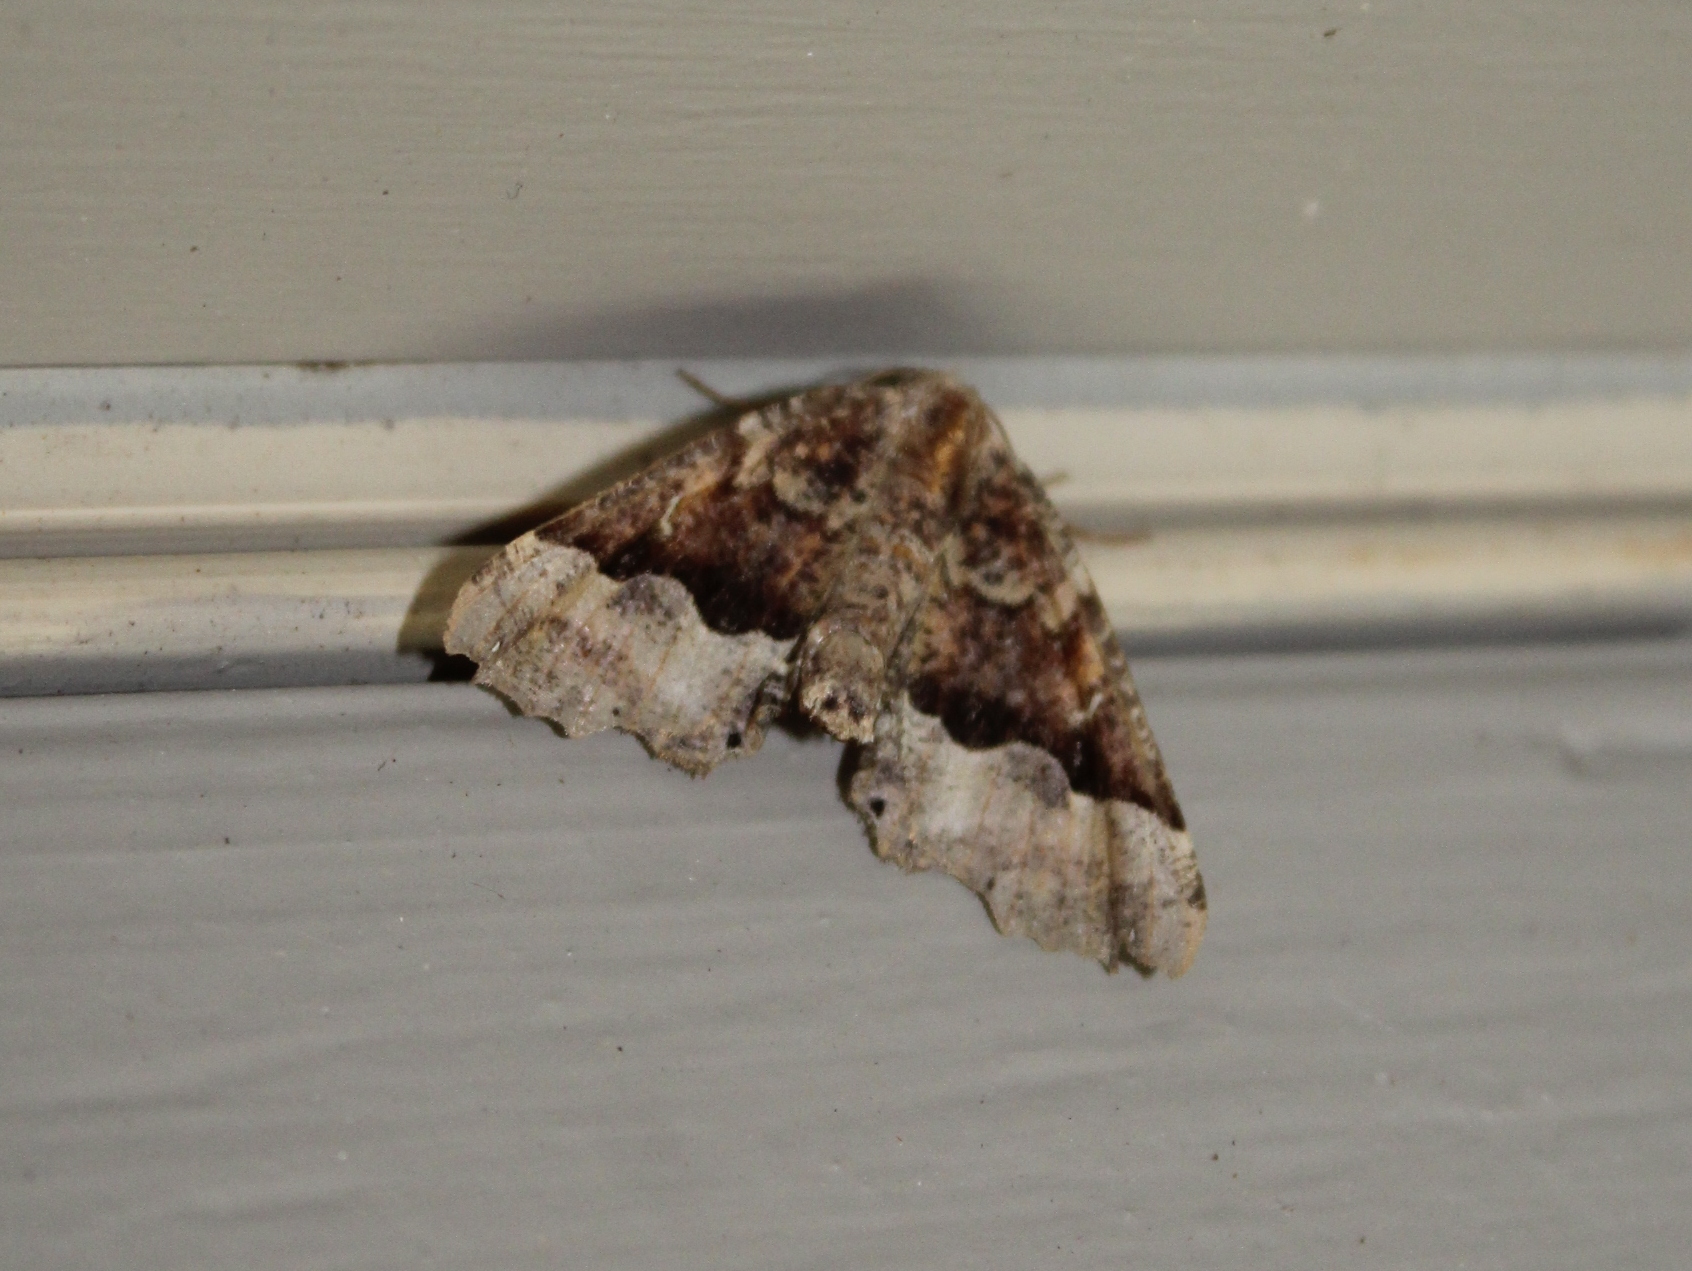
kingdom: Animalia
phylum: Arthropoda
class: Insecta
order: Lepidoptera
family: Geometridae
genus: Pero
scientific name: Pero morrisonaria
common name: Morrison's pero
